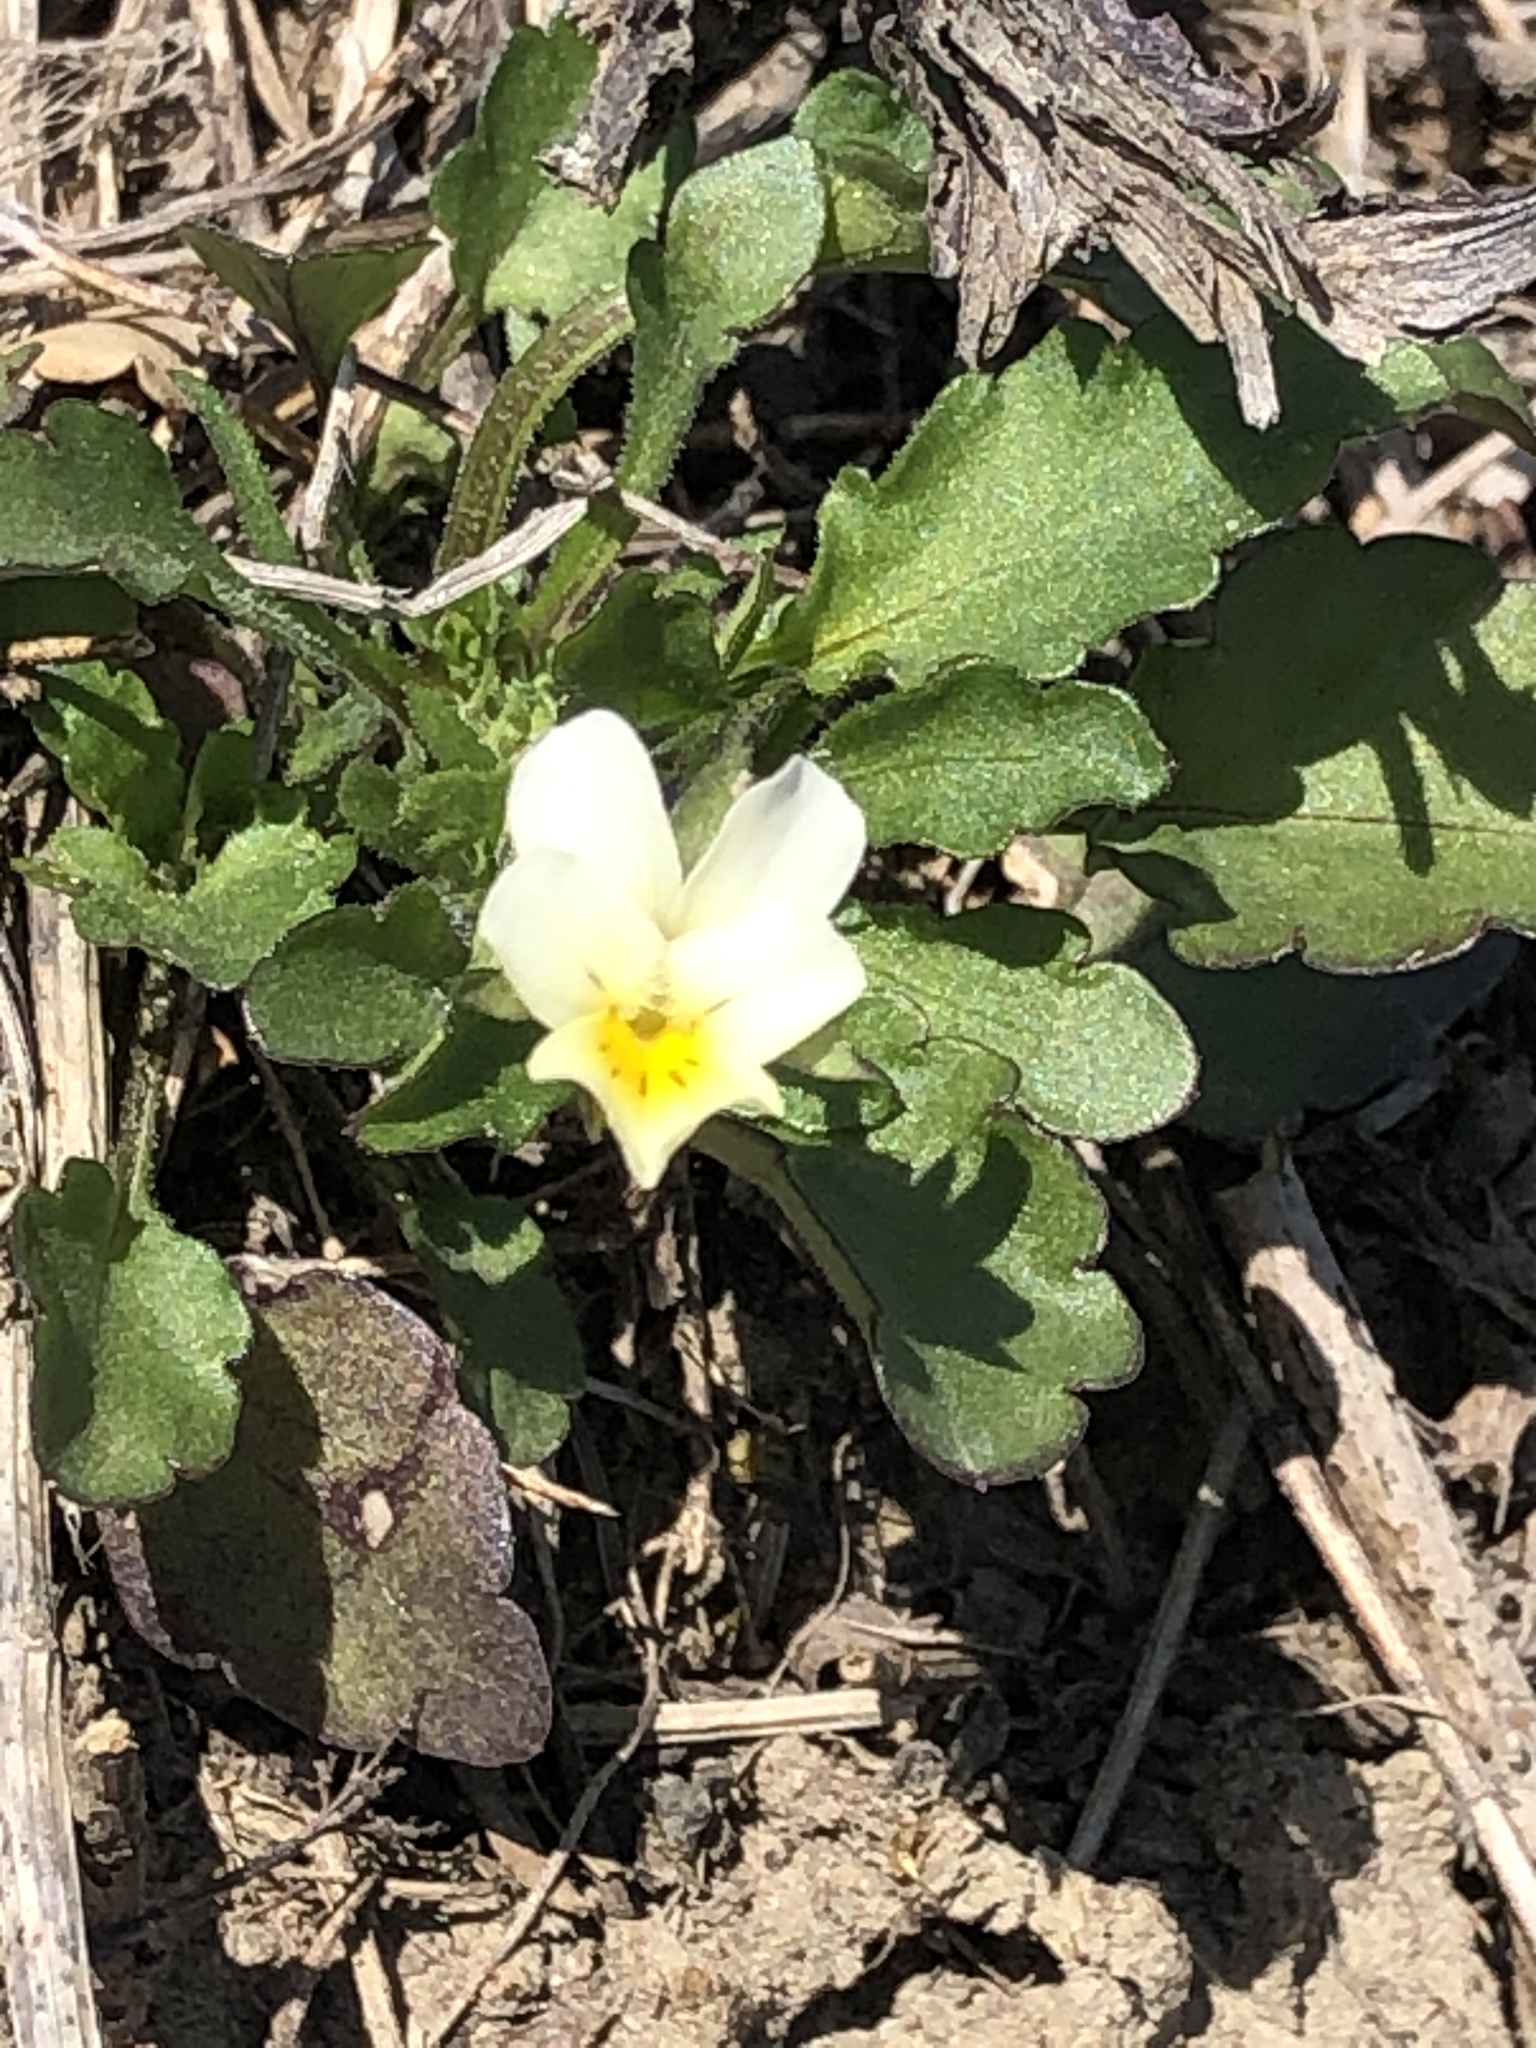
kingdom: Plantae
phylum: Tracheophyta
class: Magnoliopsida
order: Malpighiales
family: Violaceae
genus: Viola
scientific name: Viola arvensis
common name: Field pansy
